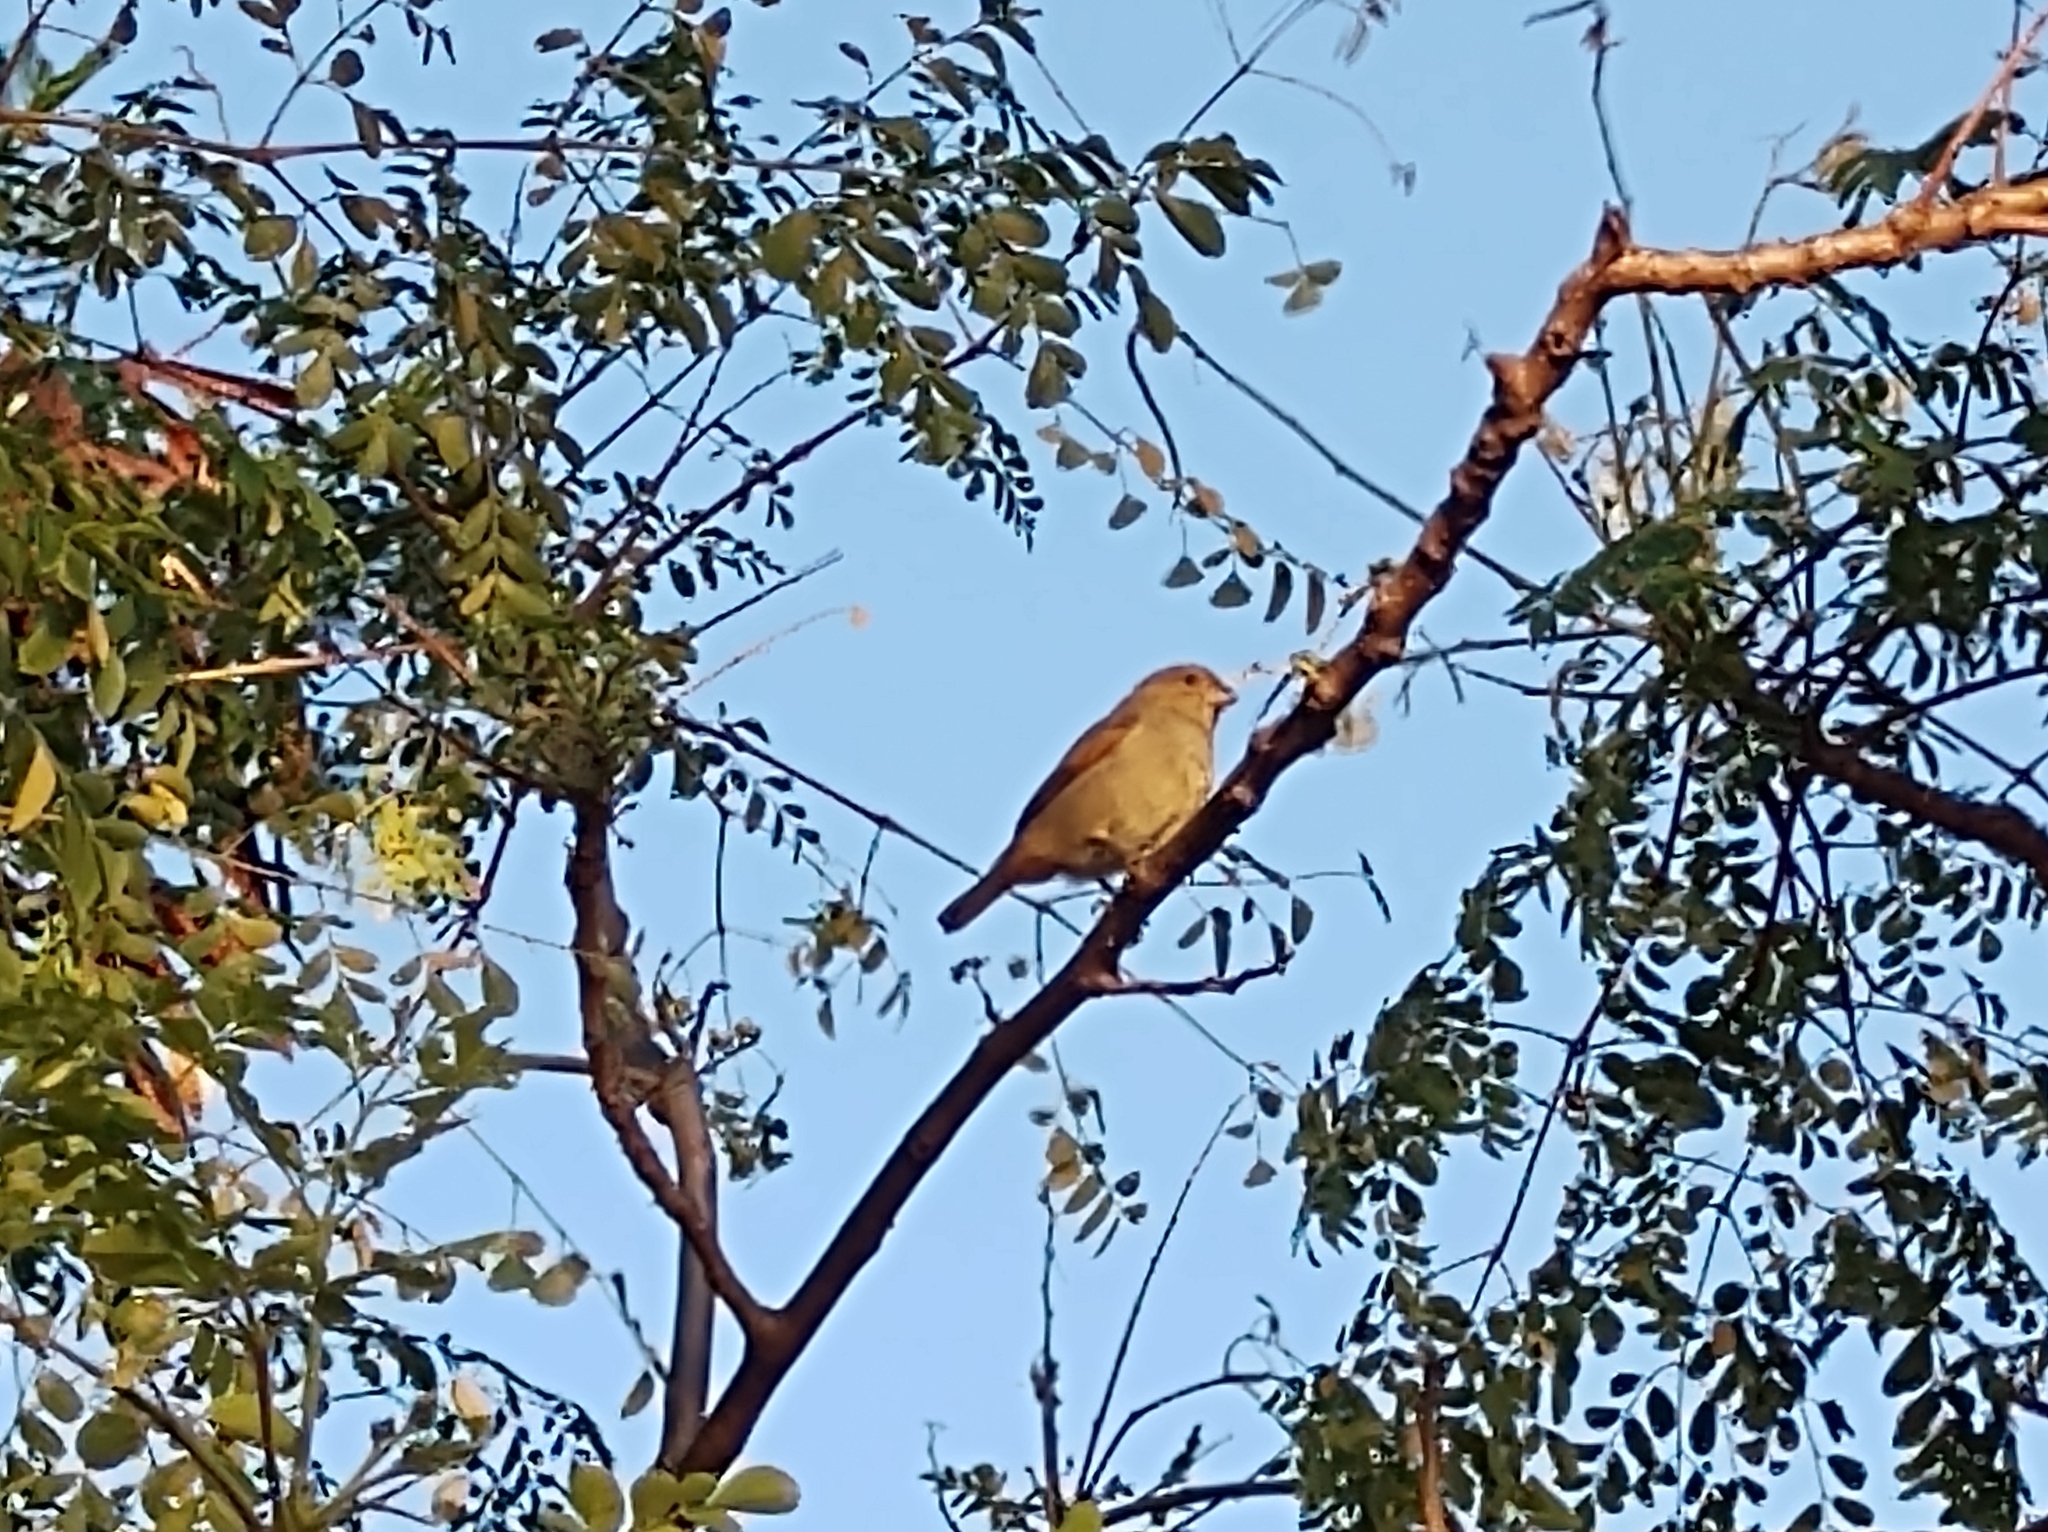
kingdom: Animalia
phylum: Chordata
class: Aves
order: Passeriformes
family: Thraupidae
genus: Loxigilla
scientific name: Loxigilla noctis
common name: Lesser antillean bullfinch
